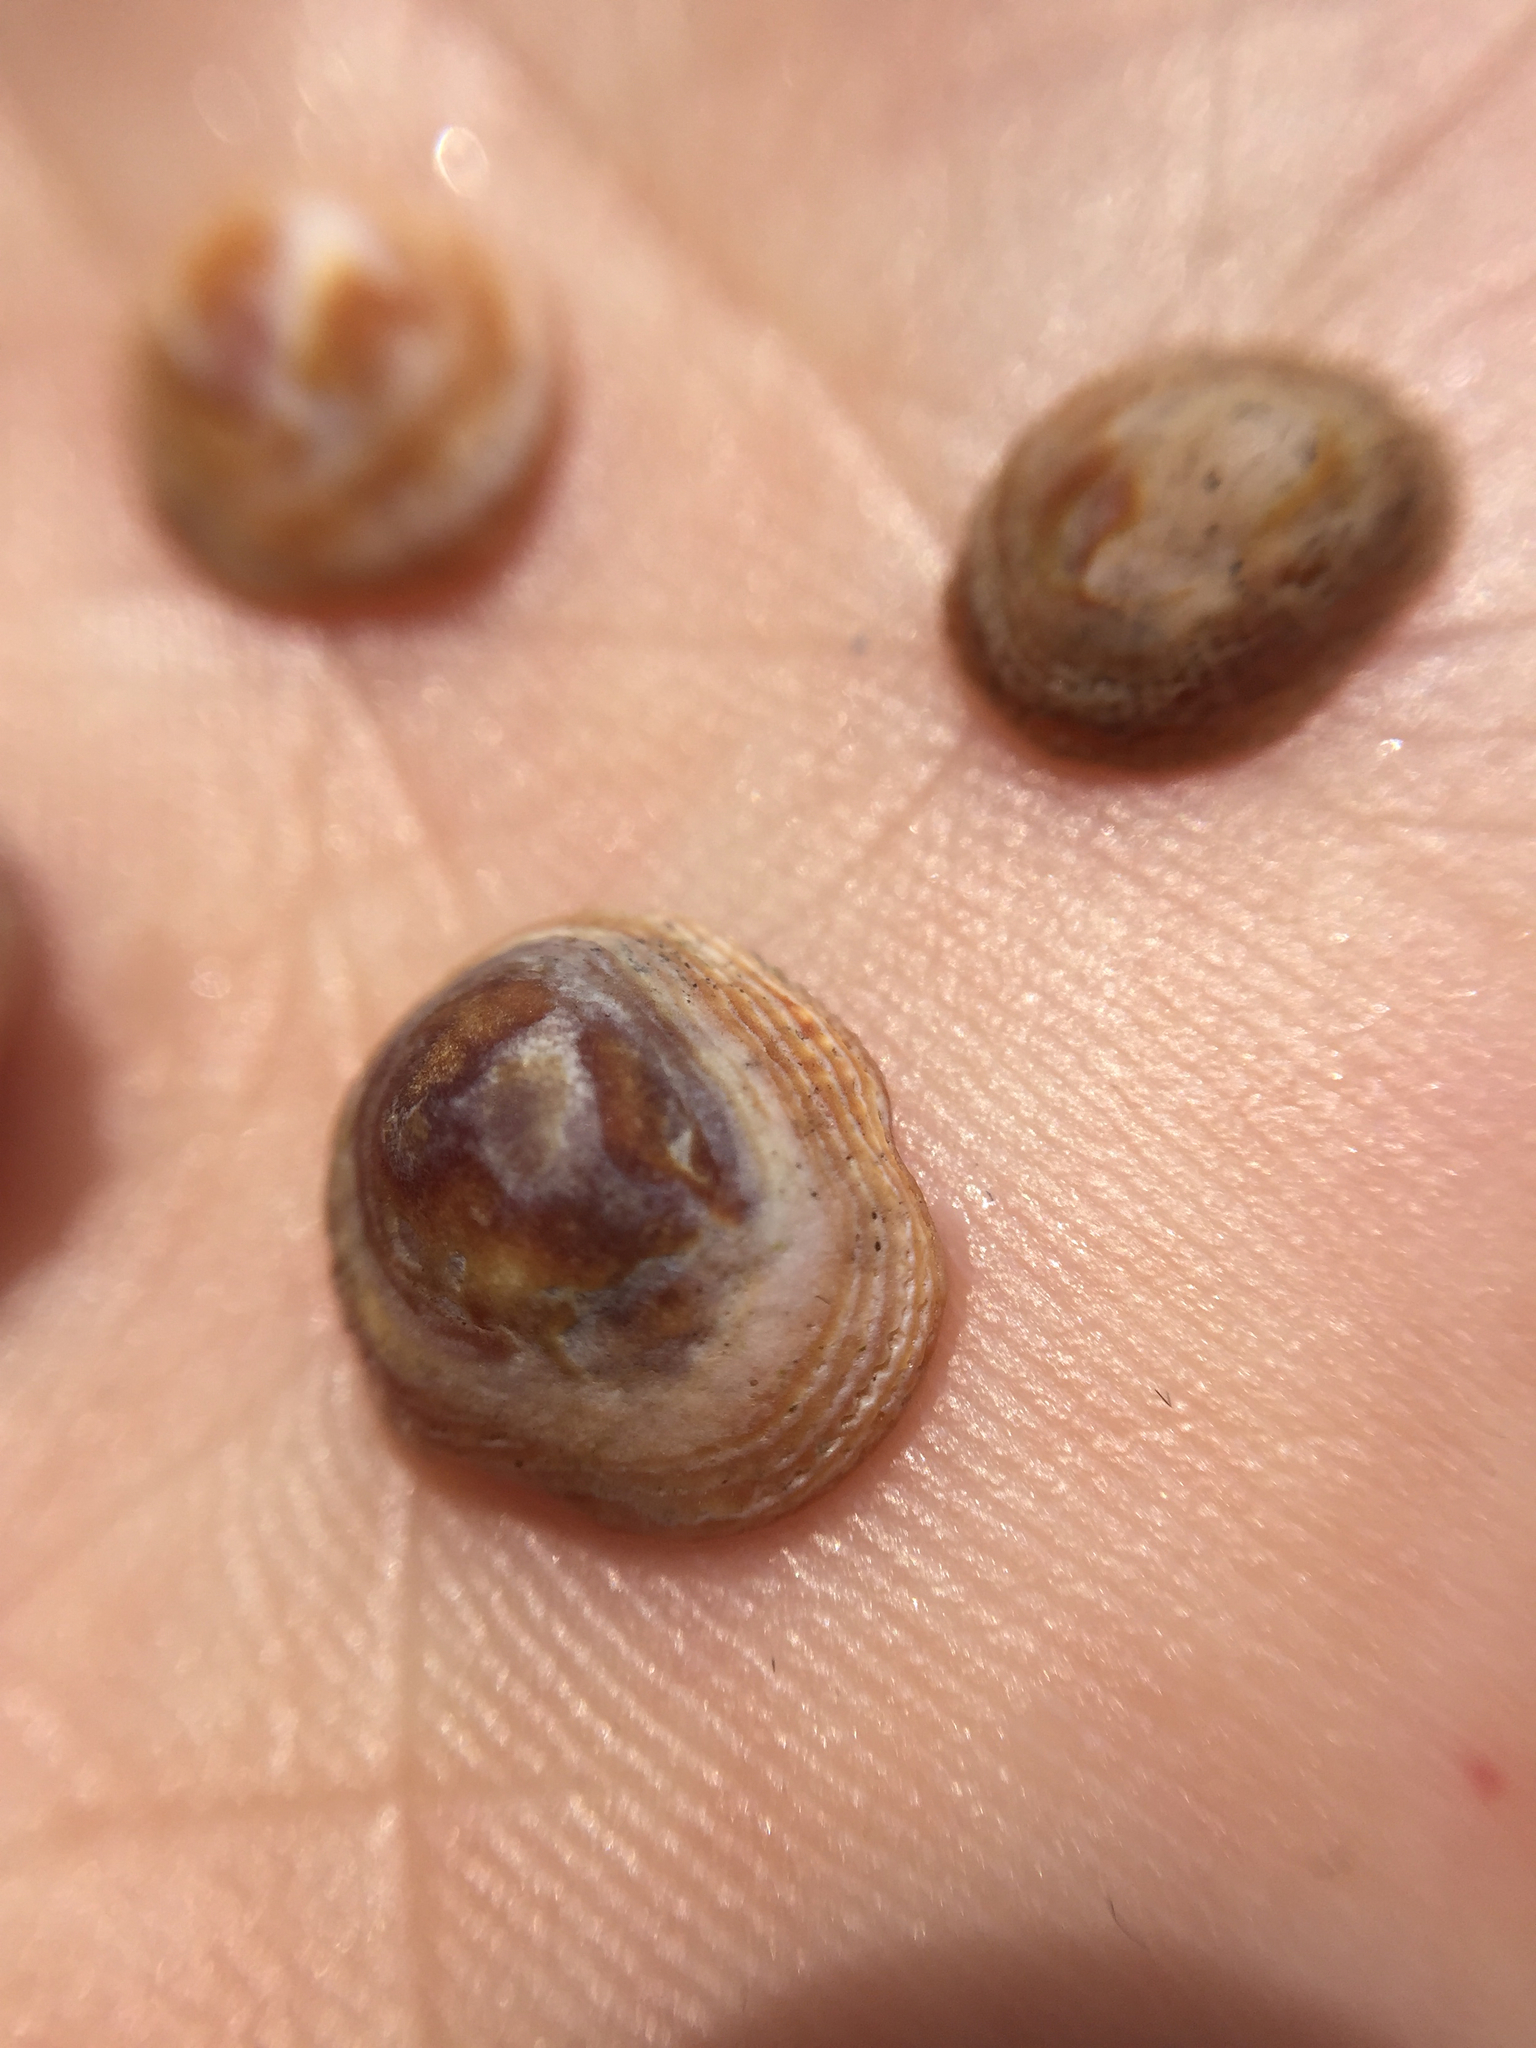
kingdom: Animalia
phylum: Mollusca
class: Gastropoda
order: Littorinimorpha
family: Hipponicidae
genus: Antisabia
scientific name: Antisabia imbricata
